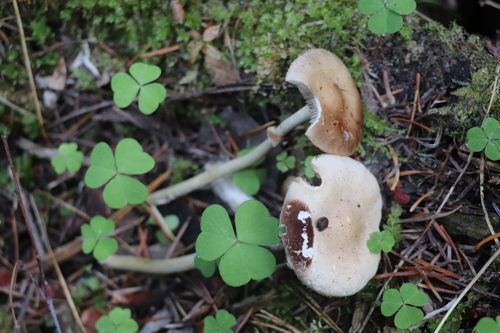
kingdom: Fungi
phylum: Basidiomycota
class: Agaricomycetes
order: Agaricales
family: Strophariaceae
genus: Agrocybe
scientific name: Agrocybe praecox
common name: Spring fieldcap
